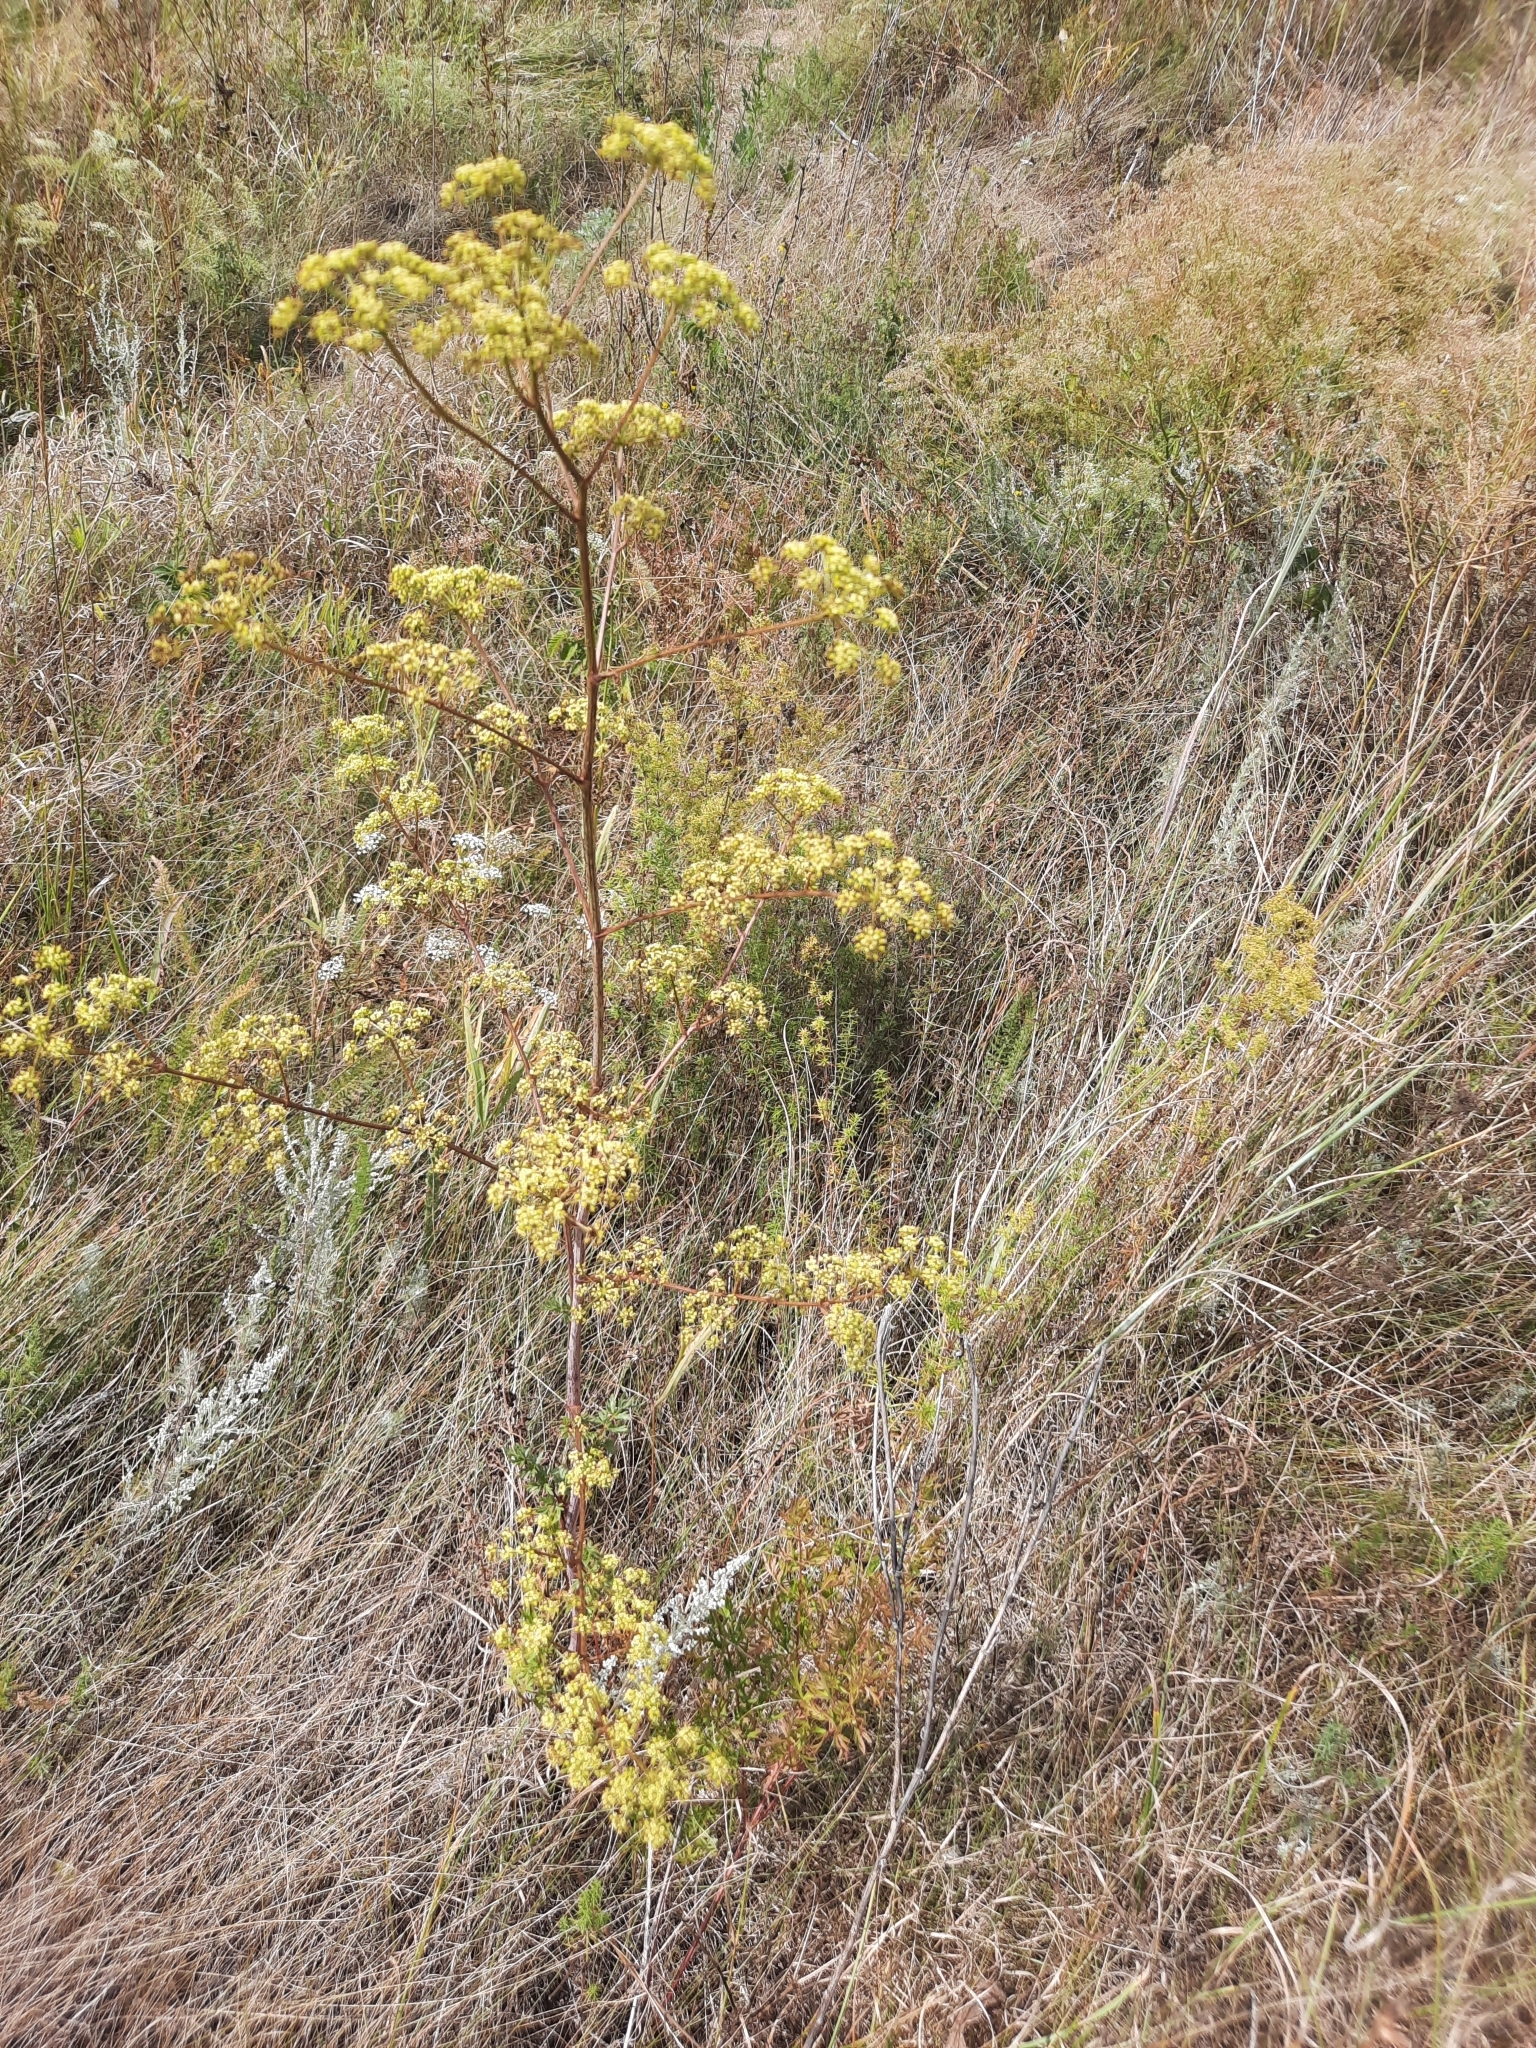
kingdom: Plantae
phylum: Tracheophyta
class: Magnoliopsida
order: Apiales
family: Apiaceae
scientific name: Apiaceae
